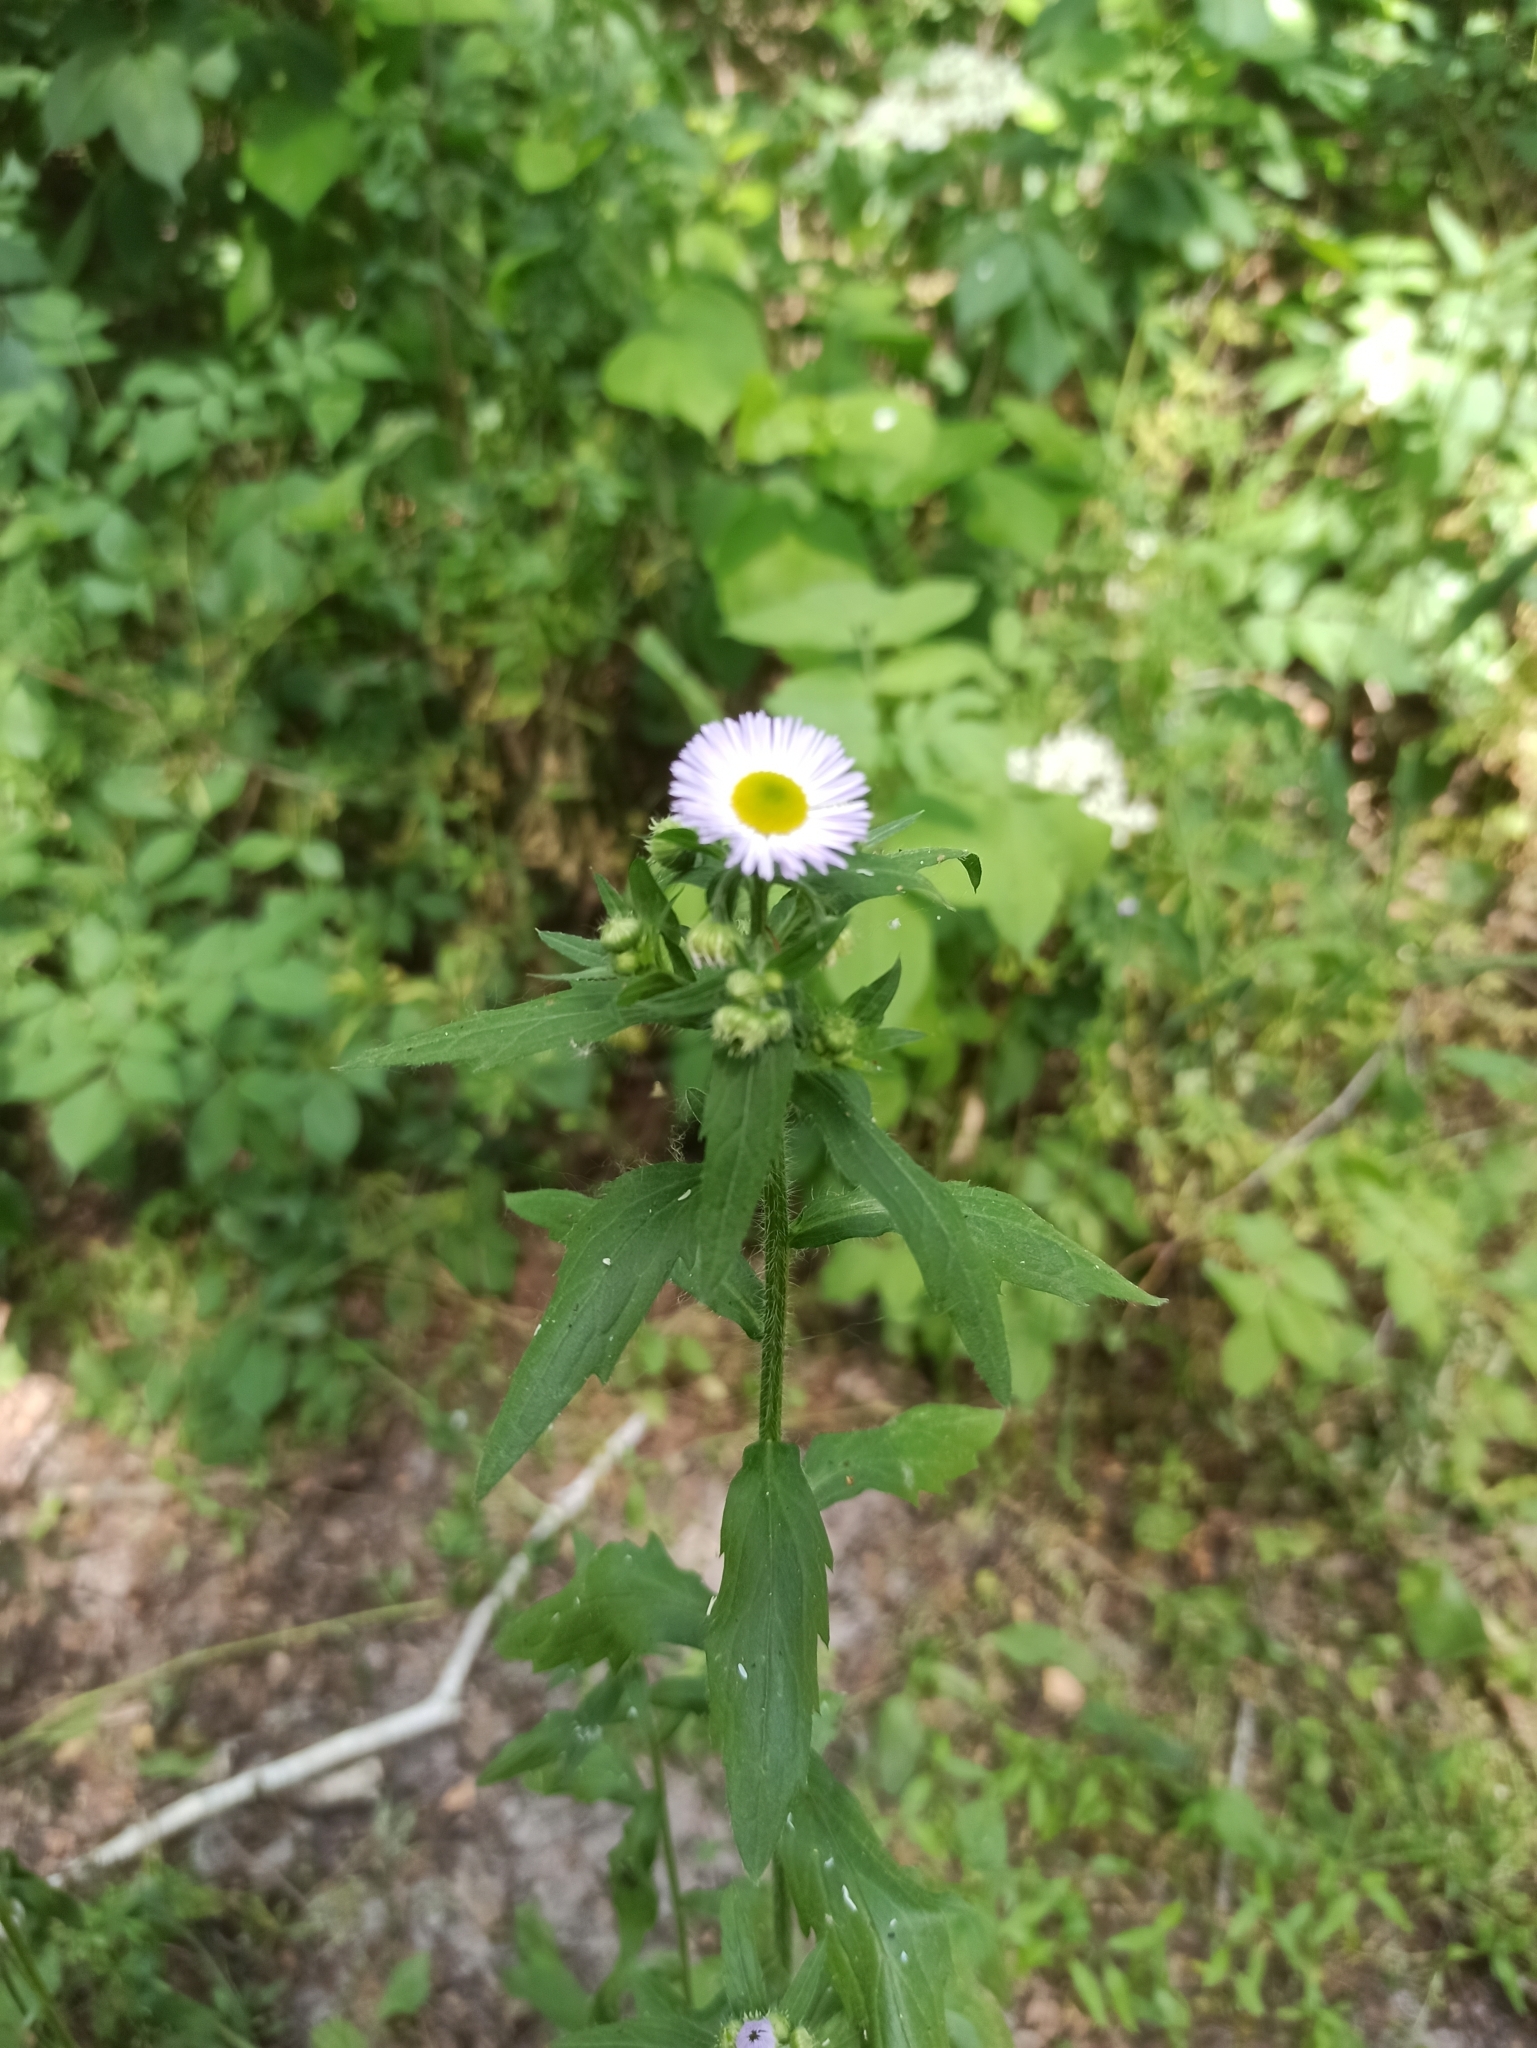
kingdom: Plantae
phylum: Tracheophyta
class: Magnoliopsida
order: Asterales
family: Asteraceae
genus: Erigeron
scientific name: Erigeron annuus
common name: Tall fleabane
